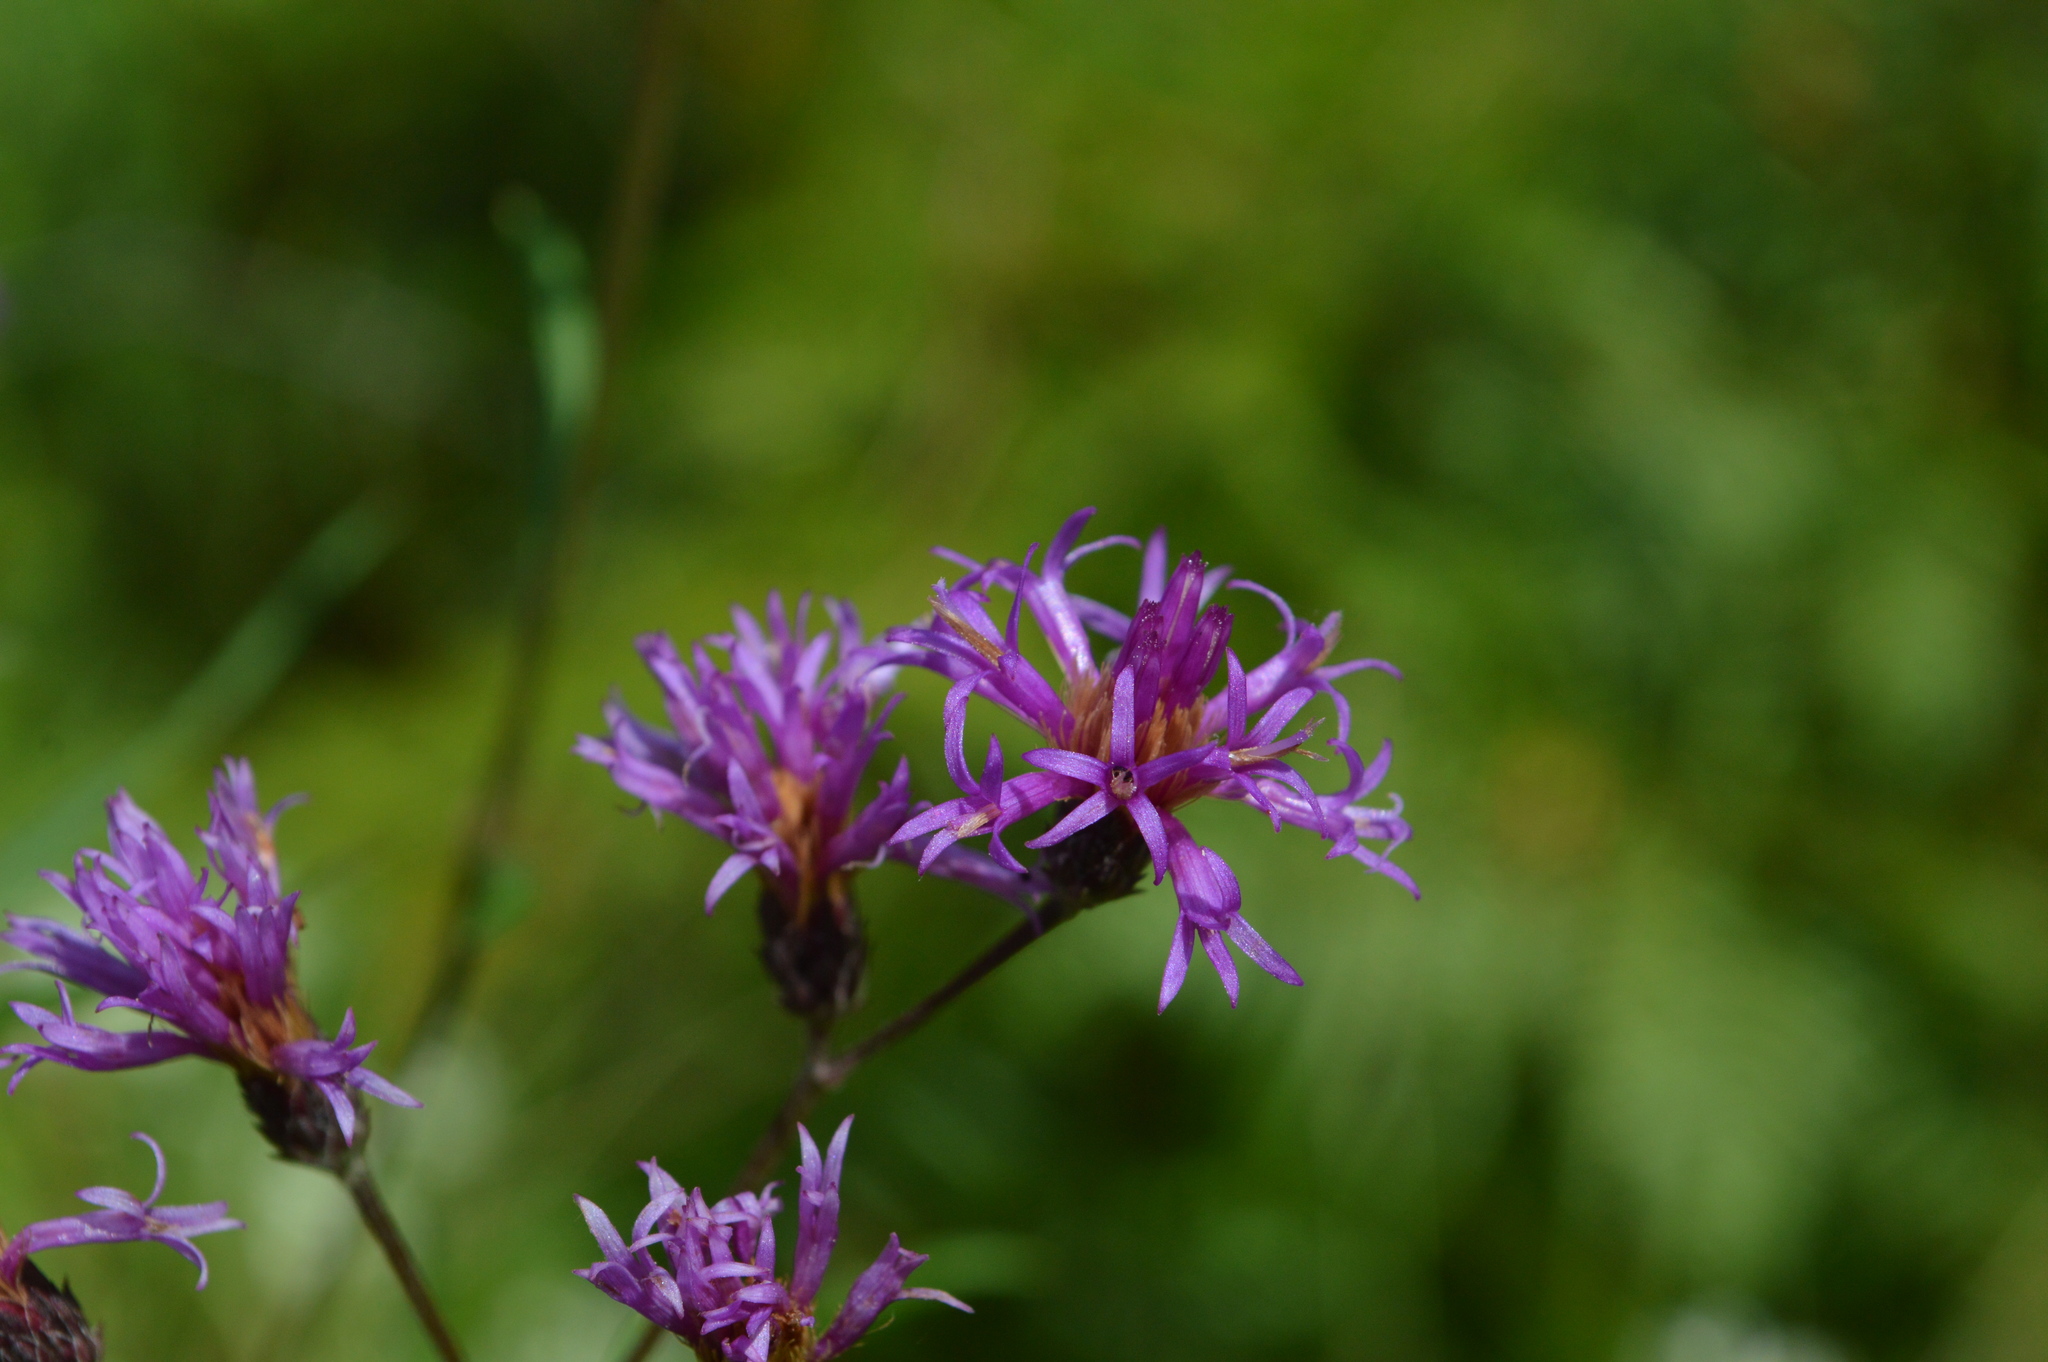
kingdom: Plantae
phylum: Tracheophyta
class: Magnoliopsida
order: Asterales
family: Asteraceae
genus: Vernonia
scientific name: Vernonia angustifolia
